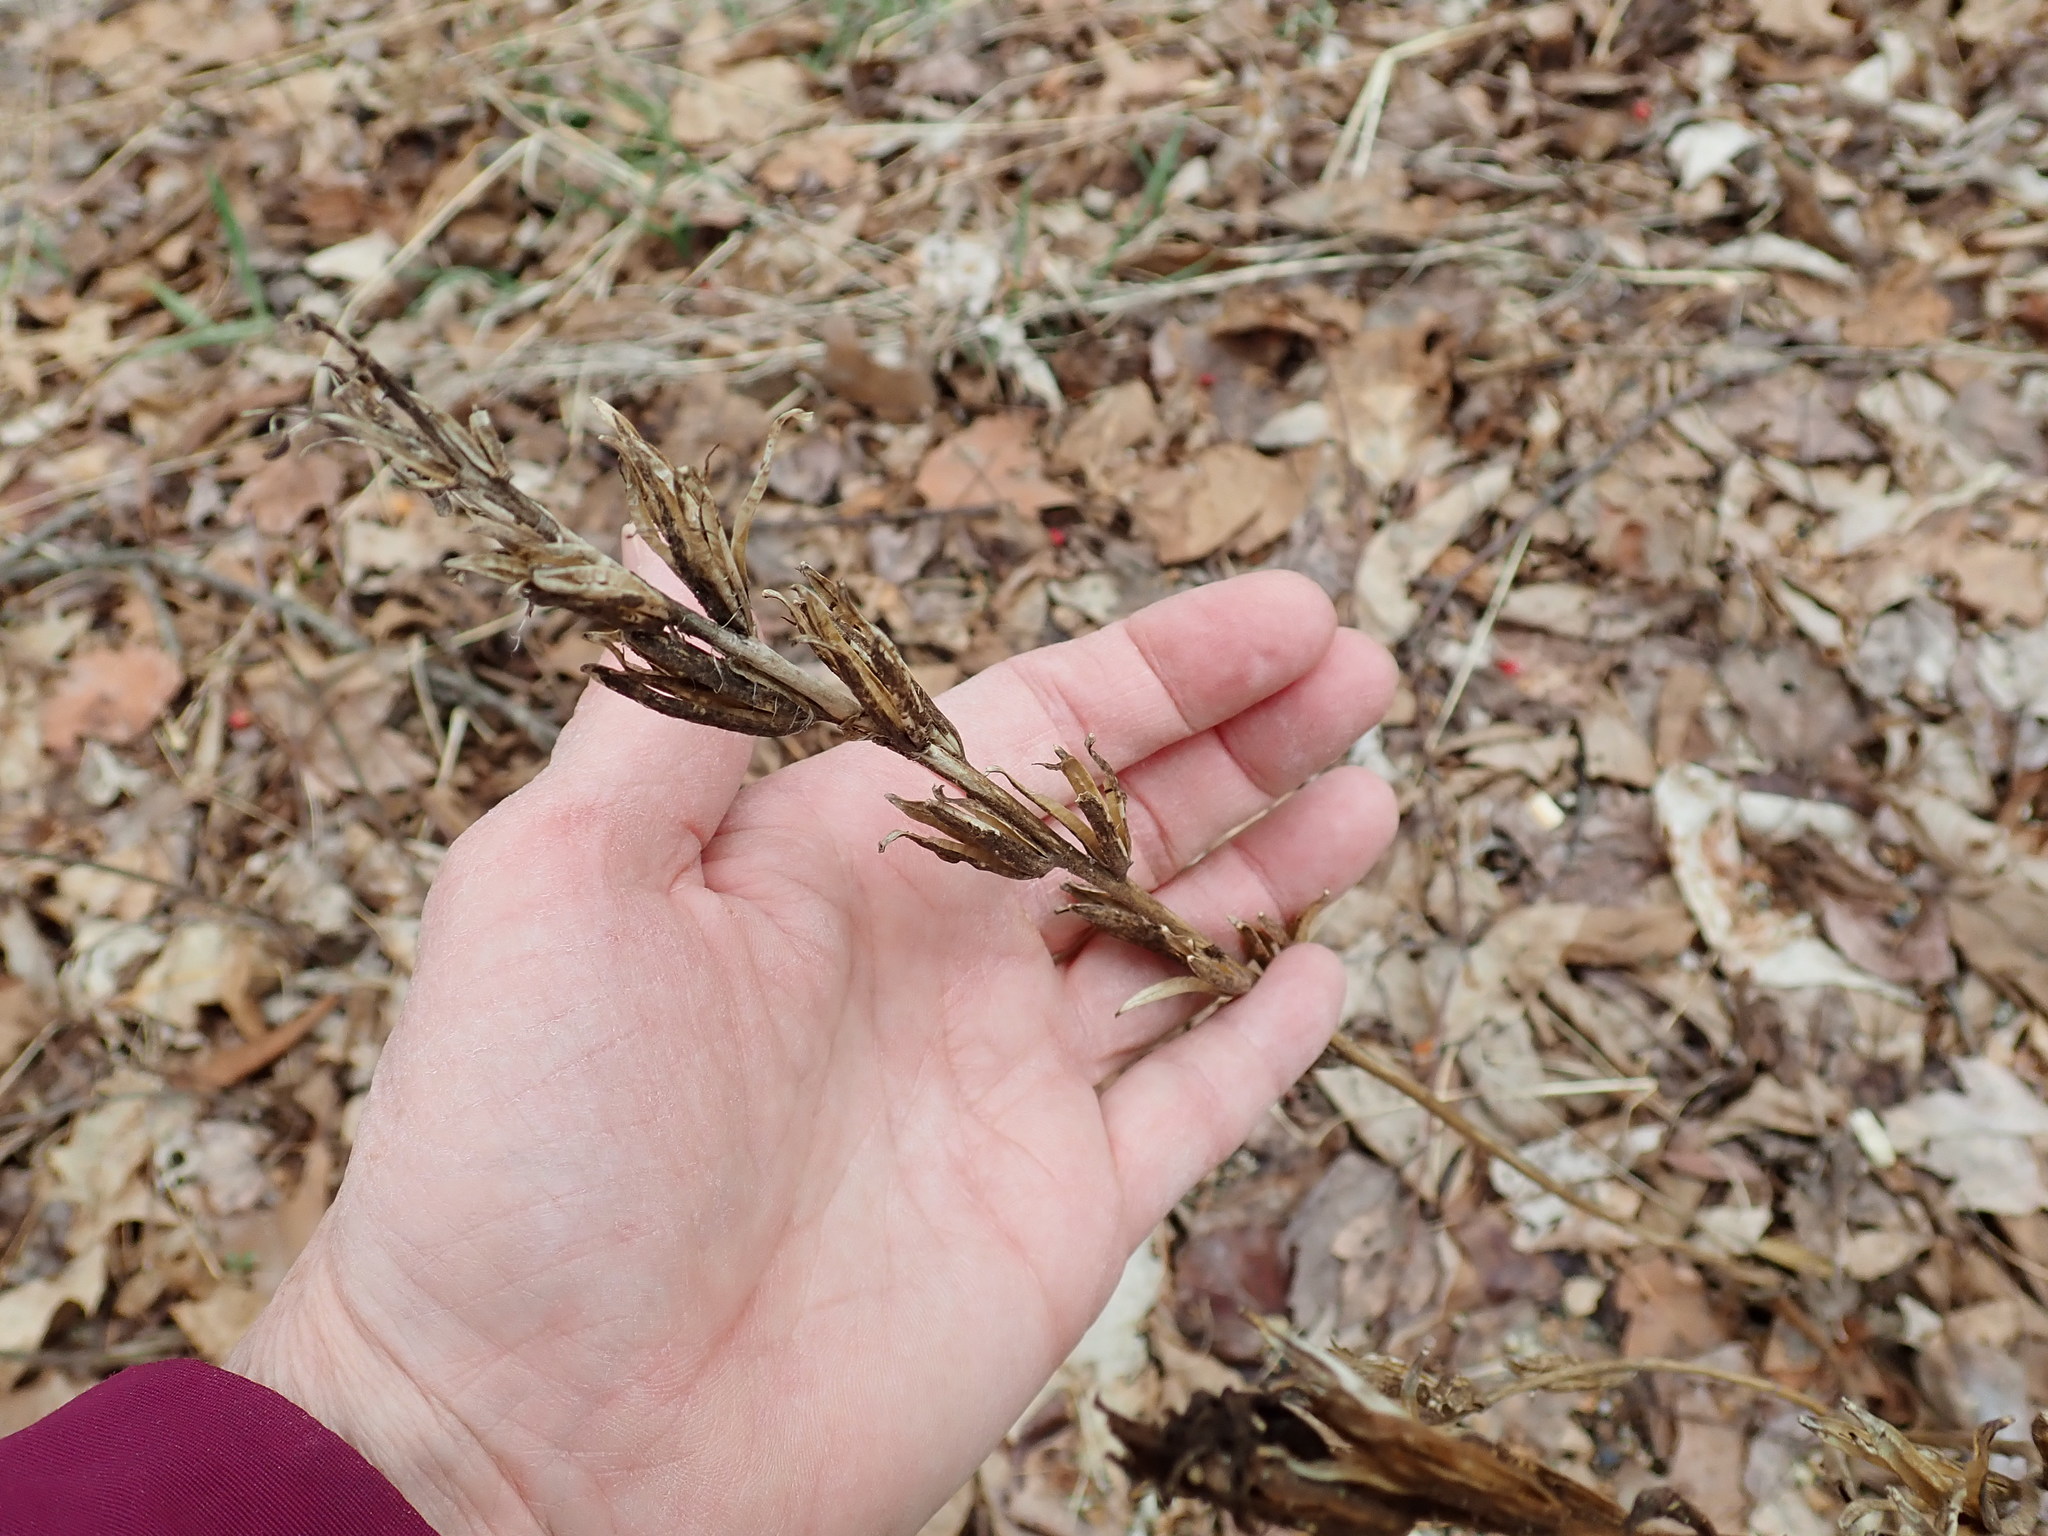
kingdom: Plantae
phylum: Tracheophyta
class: Magnoliopsida
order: Myrtales
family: Onagraceae
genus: Oenothera
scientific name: Oenothera biennis
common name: Common evening-primrose
